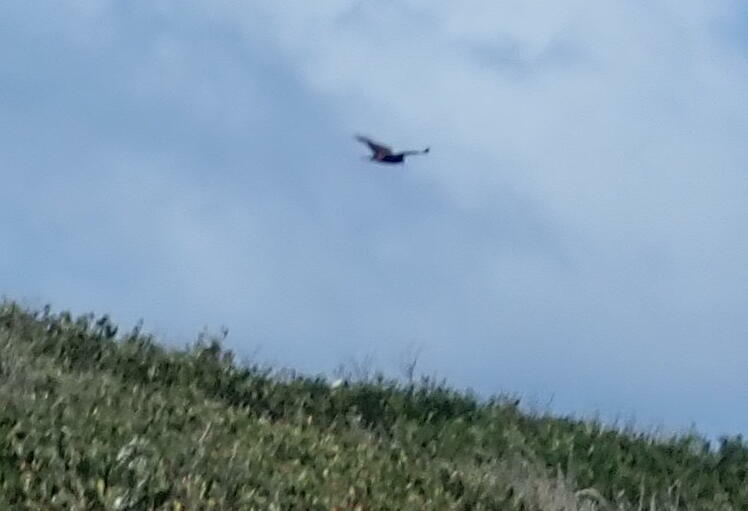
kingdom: Animalia
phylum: Chordata
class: Aves
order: Accipitriformes
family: Accipitridae
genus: Circus
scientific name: Circus approximans
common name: Swamp harrier
